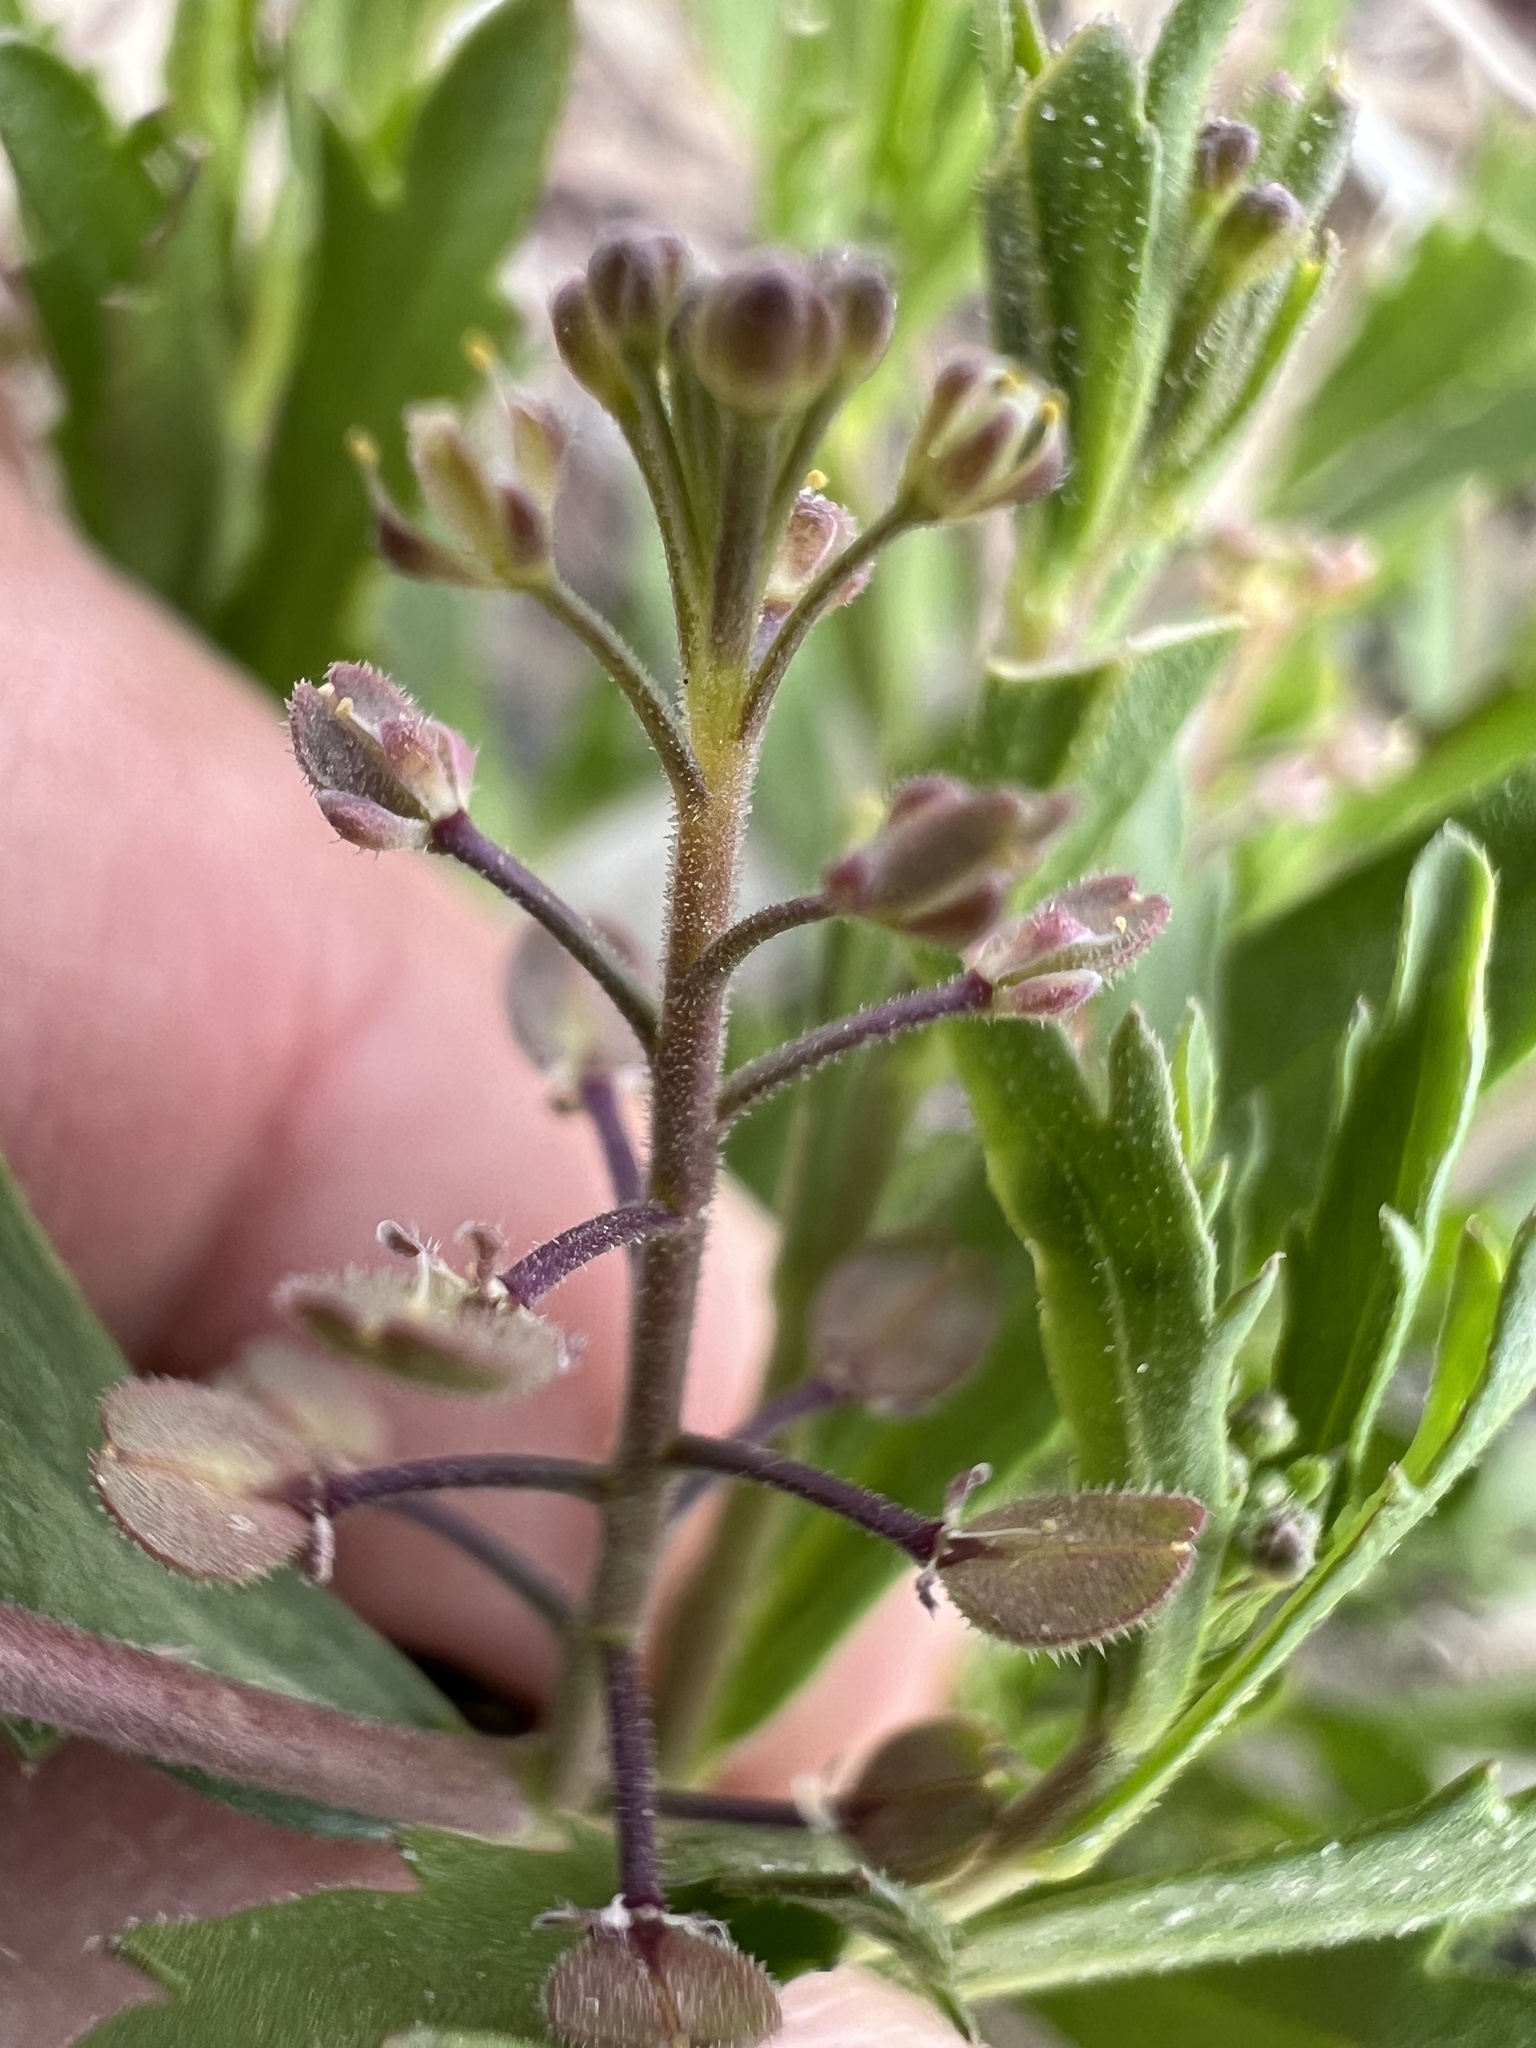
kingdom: Plantae
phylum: Tracheophyta
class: Magnoliopsida
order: Brassicales
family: Brassicaceae
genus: Lepidium
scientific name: Lepidium lasiocarpum
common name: Hairy-pod pepperwort
